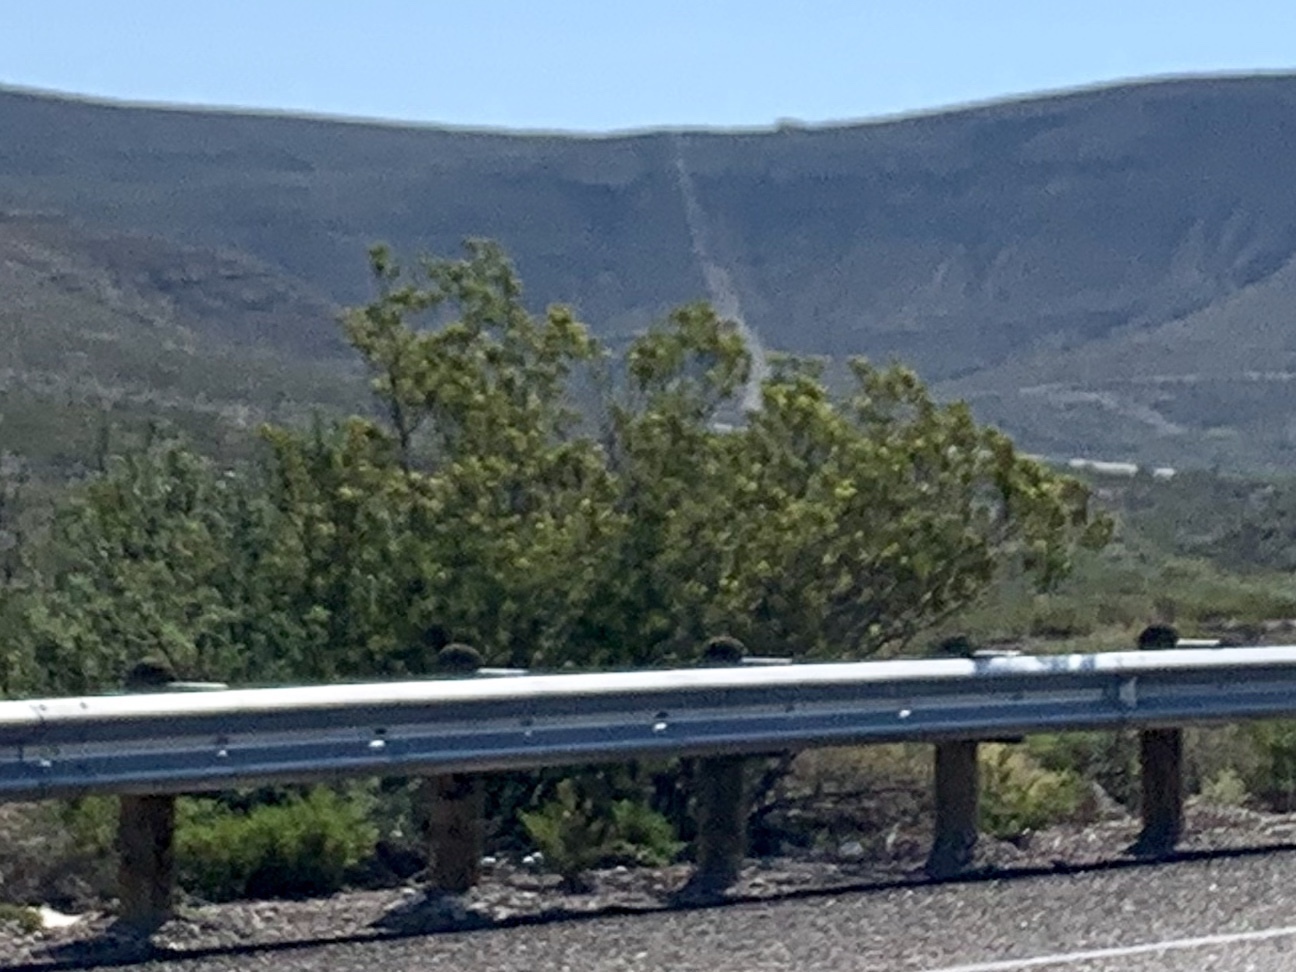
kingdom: Plantae
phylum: Tracheophyta
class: Magnoliopsida
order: Zygophyllales
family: Zygophyllaceae
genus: Larrea
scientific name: Larrea tridentata
